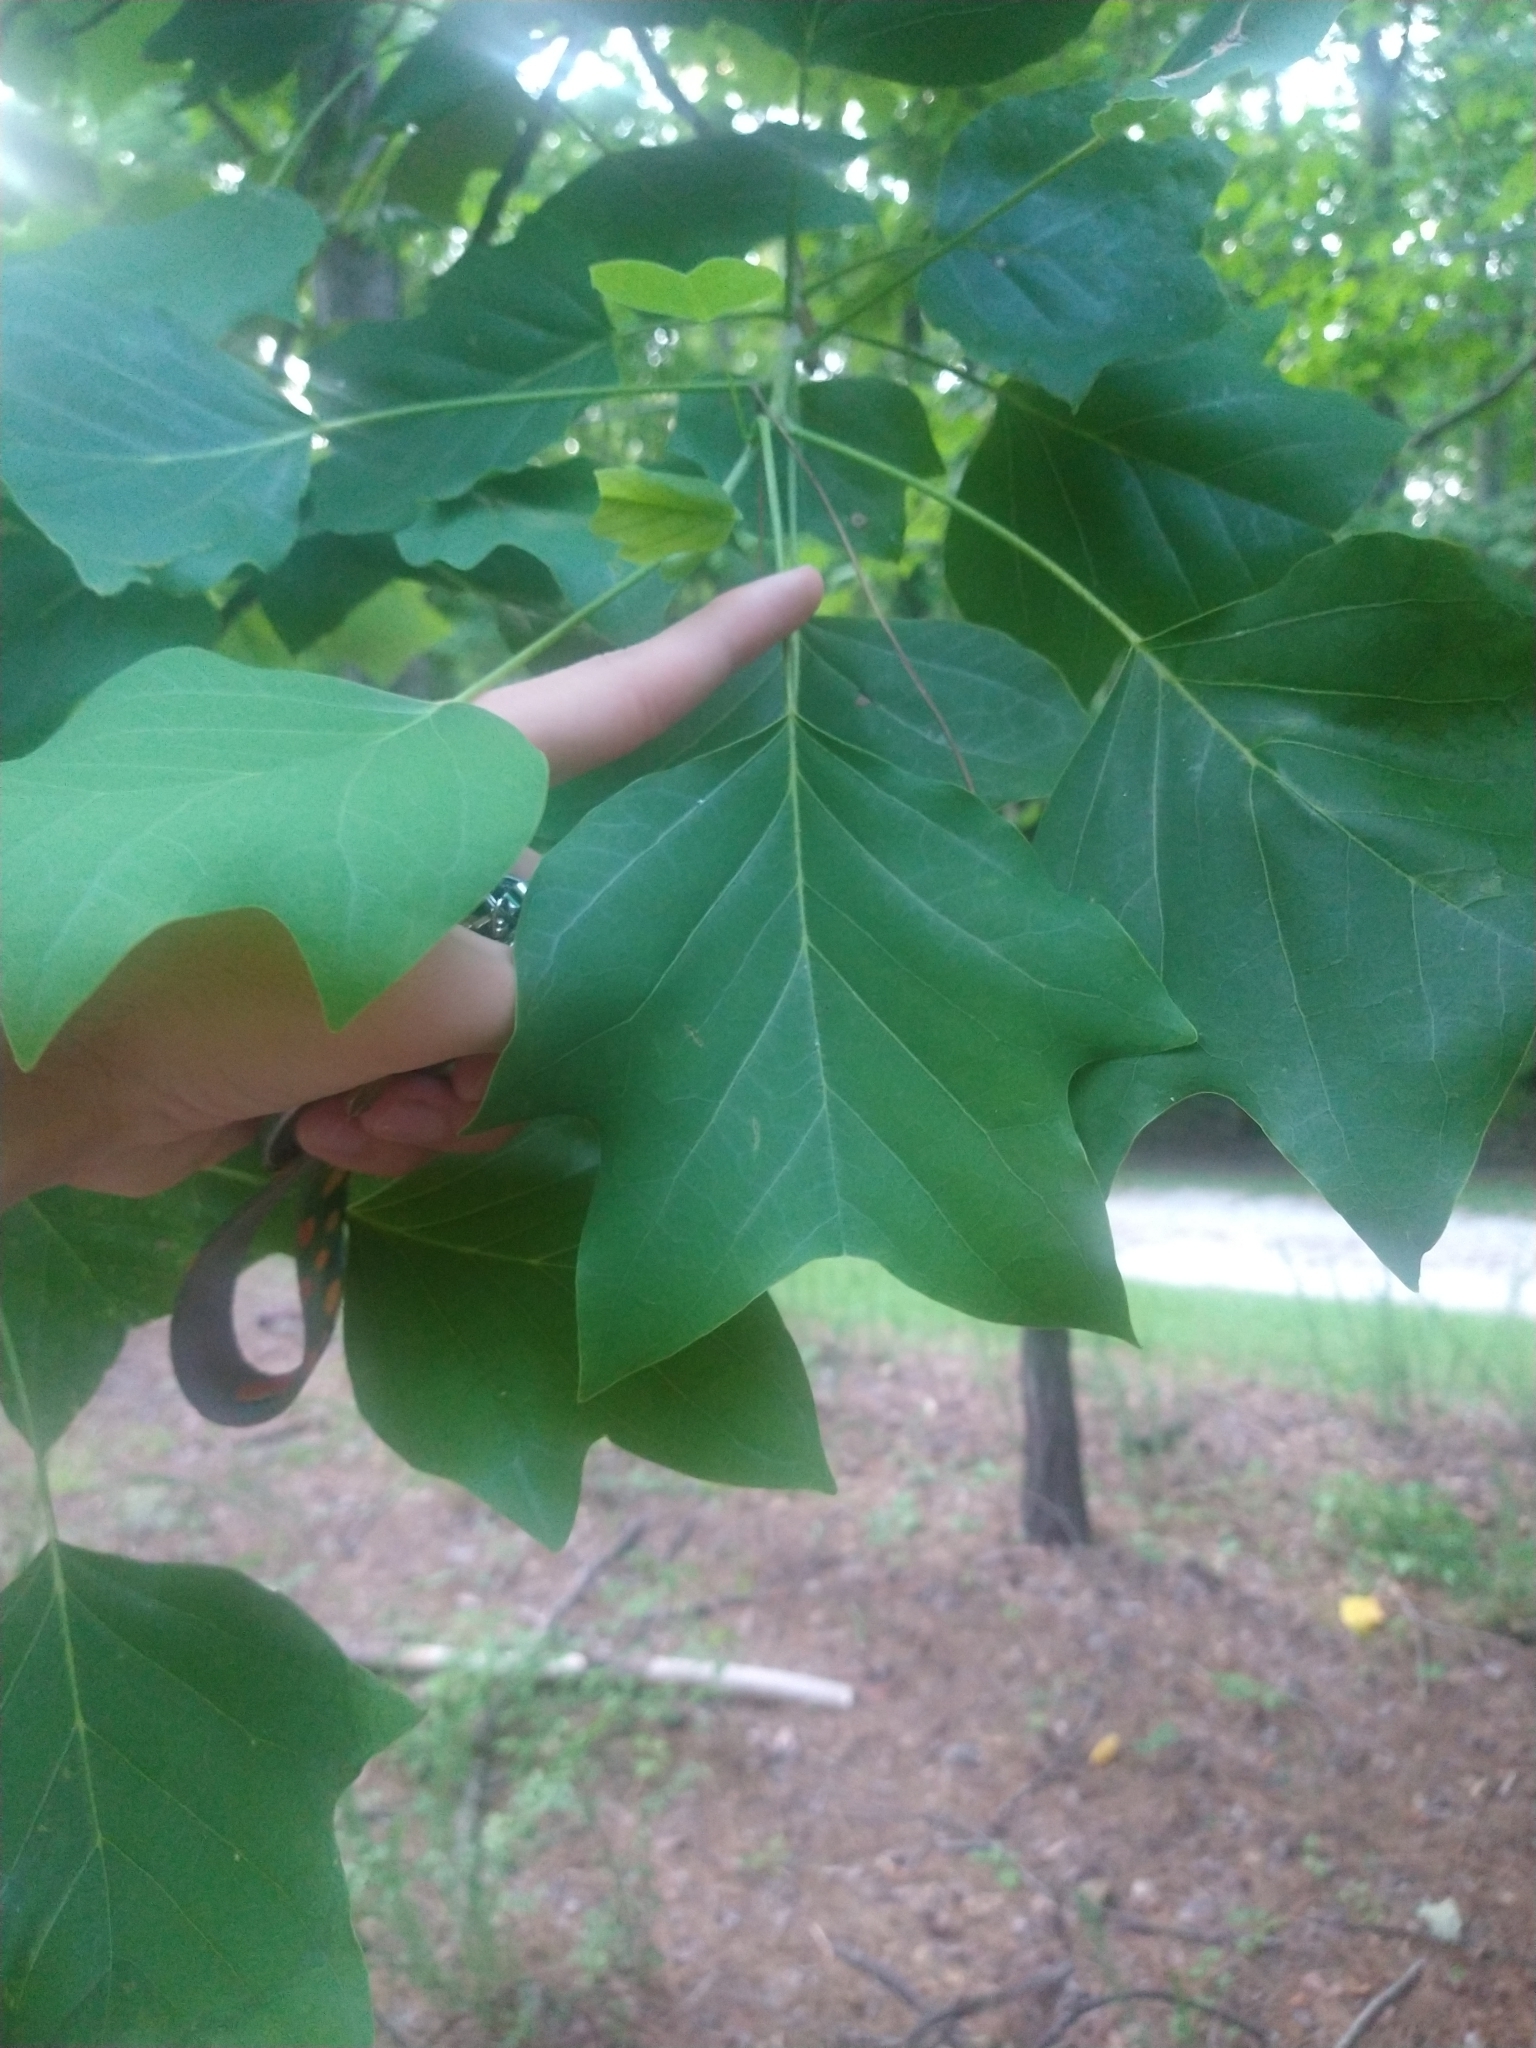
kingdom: Plantae
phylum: Tracheophyta
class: Magnoliopsida
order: Magnoliales
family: Magnoliaceae
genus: Liriodendron
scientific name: Liriodendron tulipifera
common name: Tulip tree
